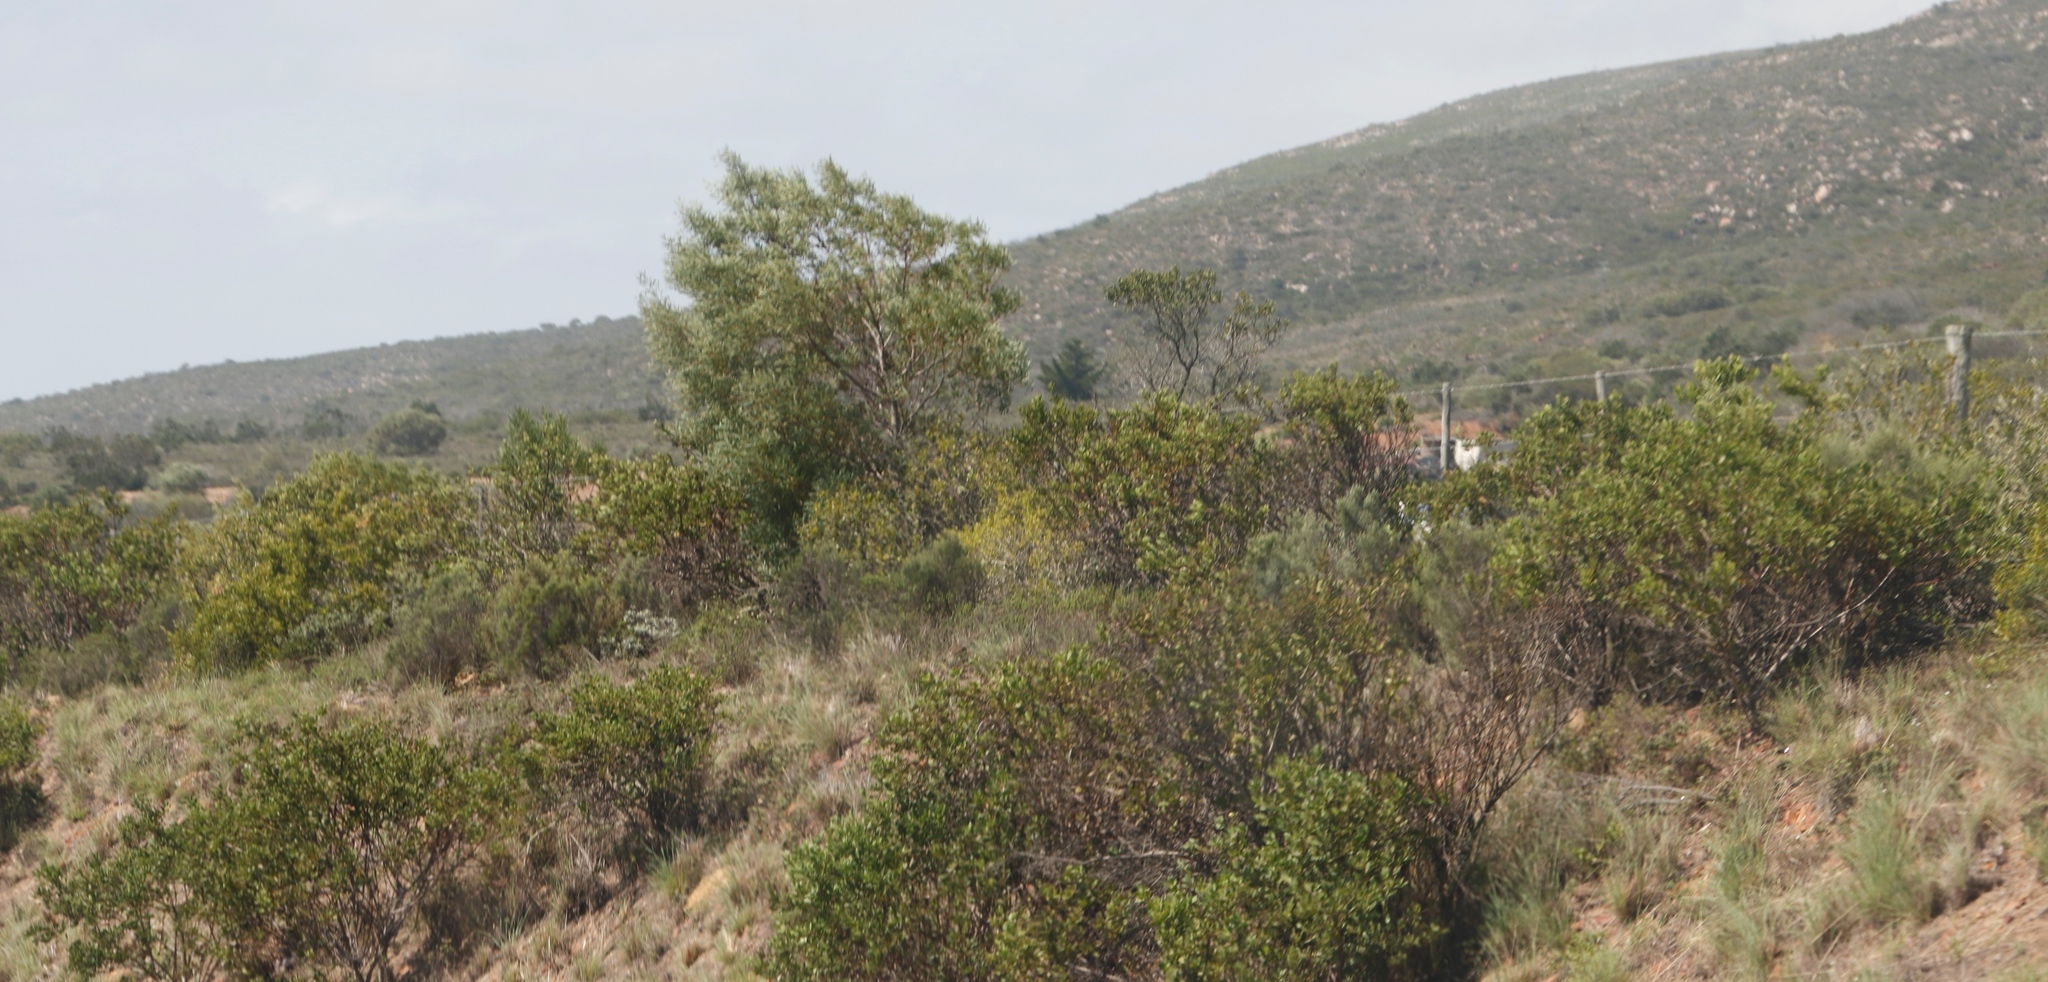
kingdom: Plantae
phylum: Tracheophyta
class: Magnoliopsida
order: Asterales
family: Asteraceae
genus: Osteospermum
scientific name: Osteospermum moniliferum
